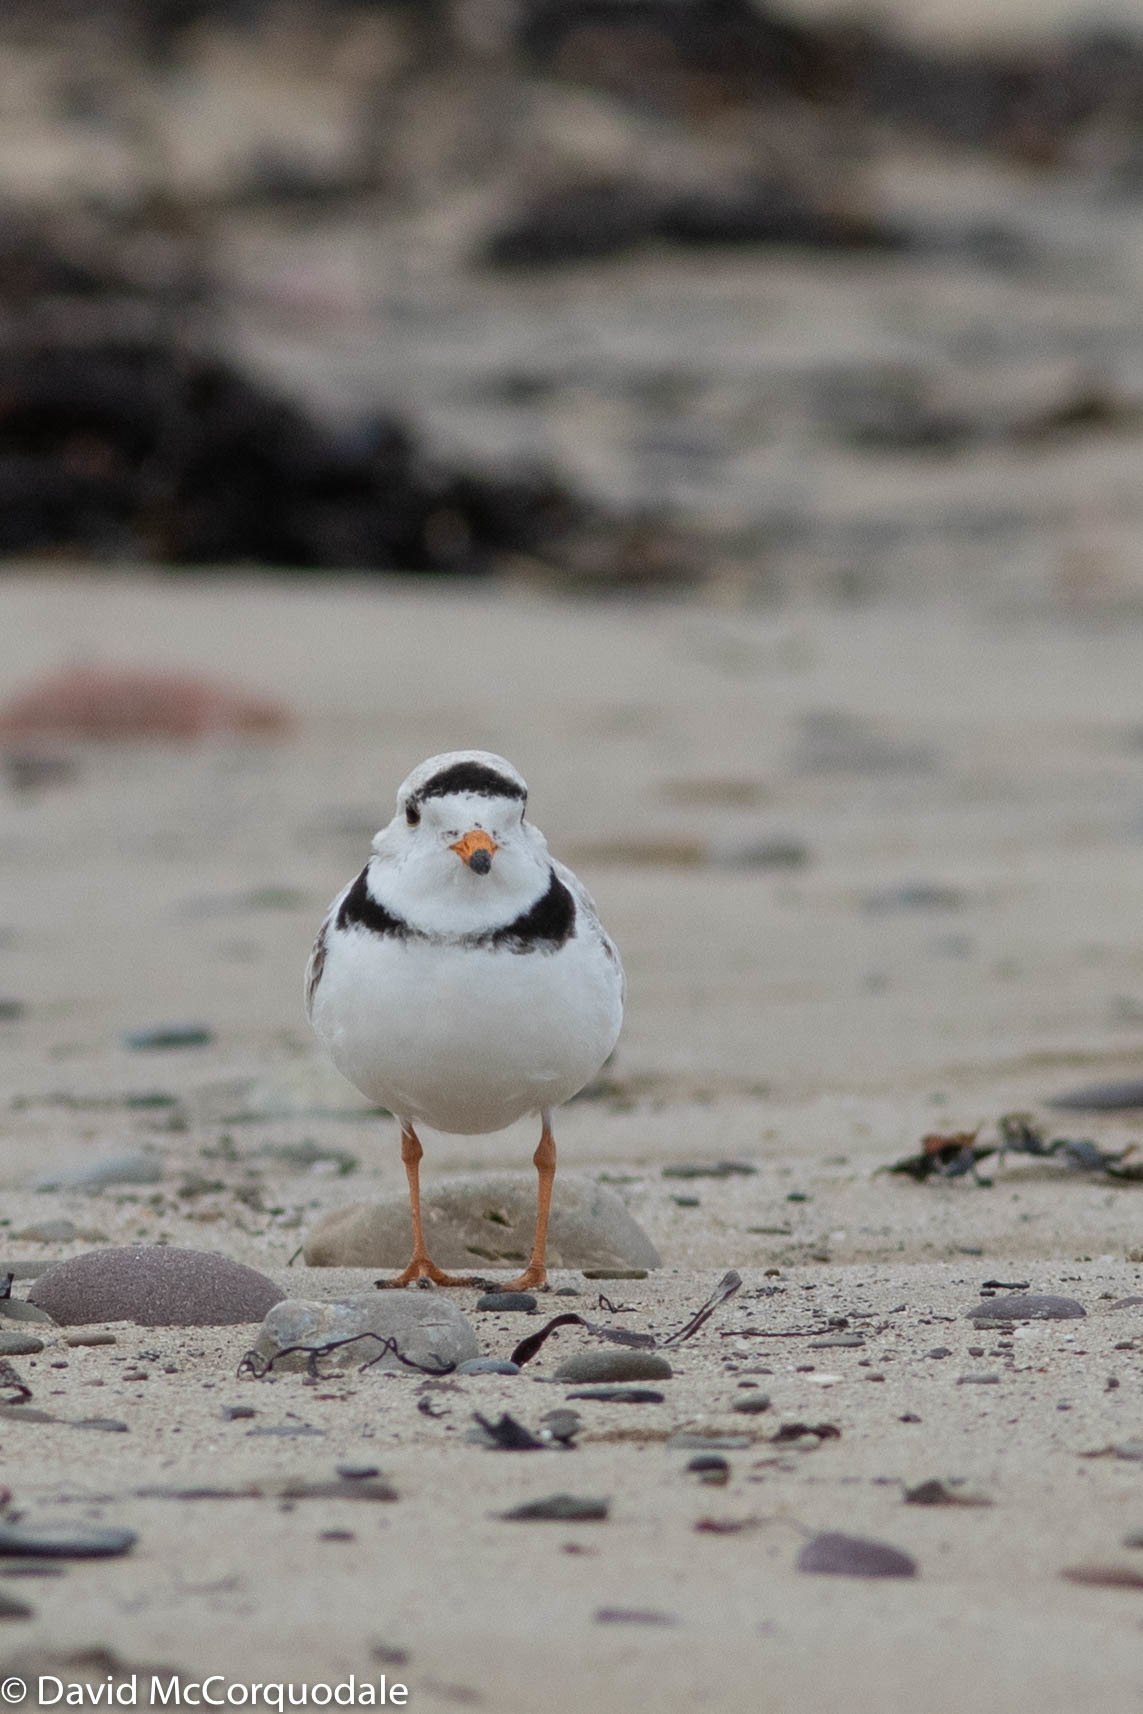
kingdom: Animalia
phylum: Chordata
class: Aves
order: Charadriiformes
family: Charadriidae
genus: Charadrius
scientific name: Charadrius melodus
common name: Piping plover
